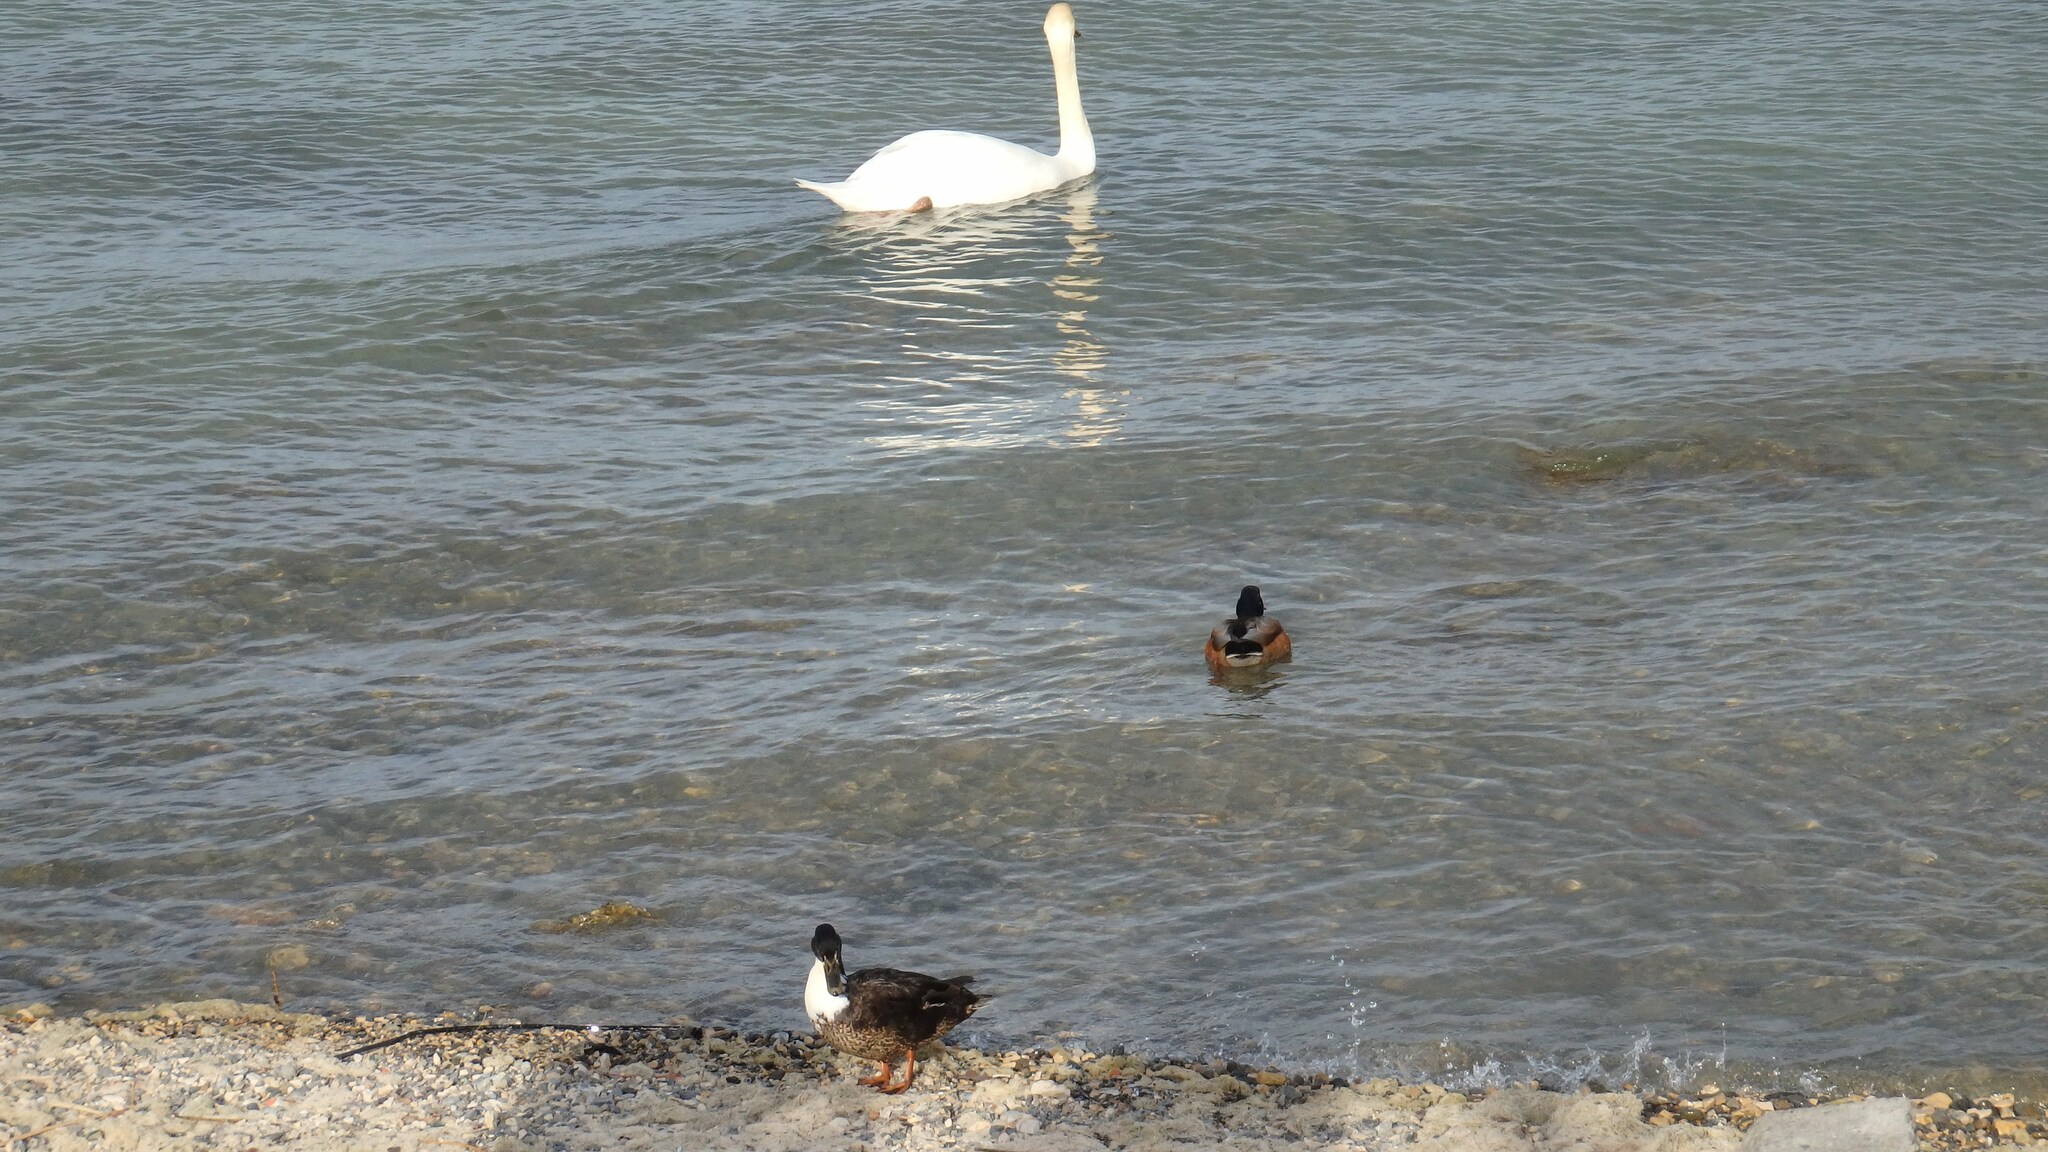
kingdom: Animalia
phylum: Chordata
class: Aves
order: Anseriformes
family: Anatidae
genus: Anas
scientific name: Anas platyrhynchos
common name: Mallard
